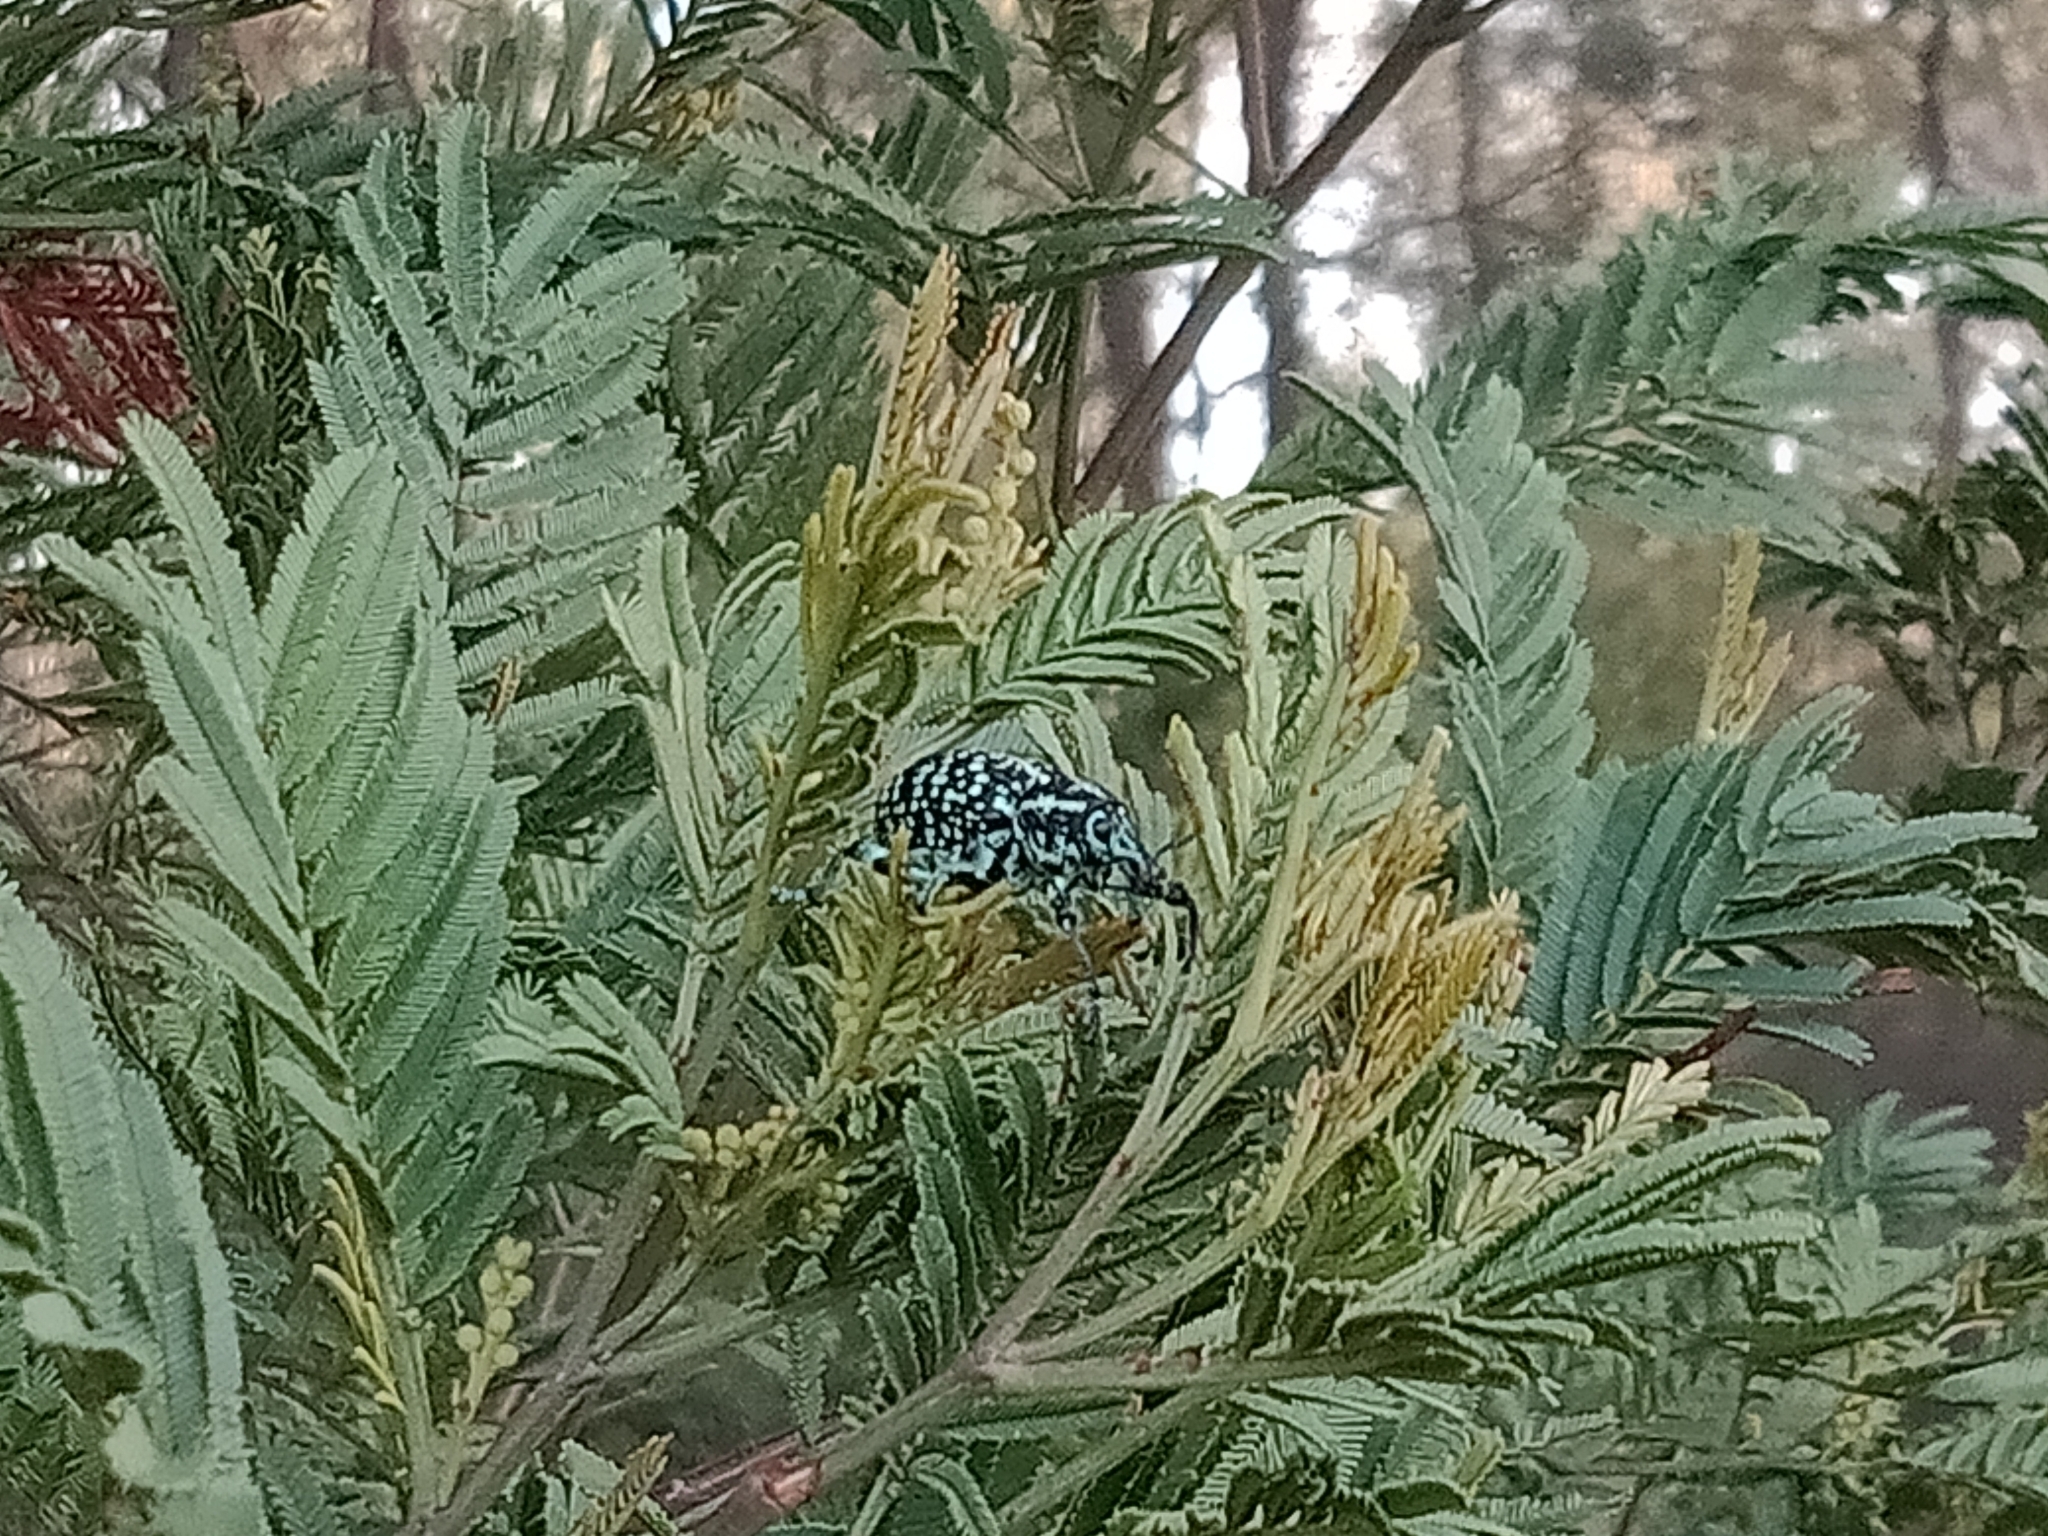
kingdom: Animalia
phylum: Arthropoda
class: Insecta
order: Coleoptera
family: Curculionidae
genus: Chrysolopus
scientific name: Chrysolopus spectabilis
